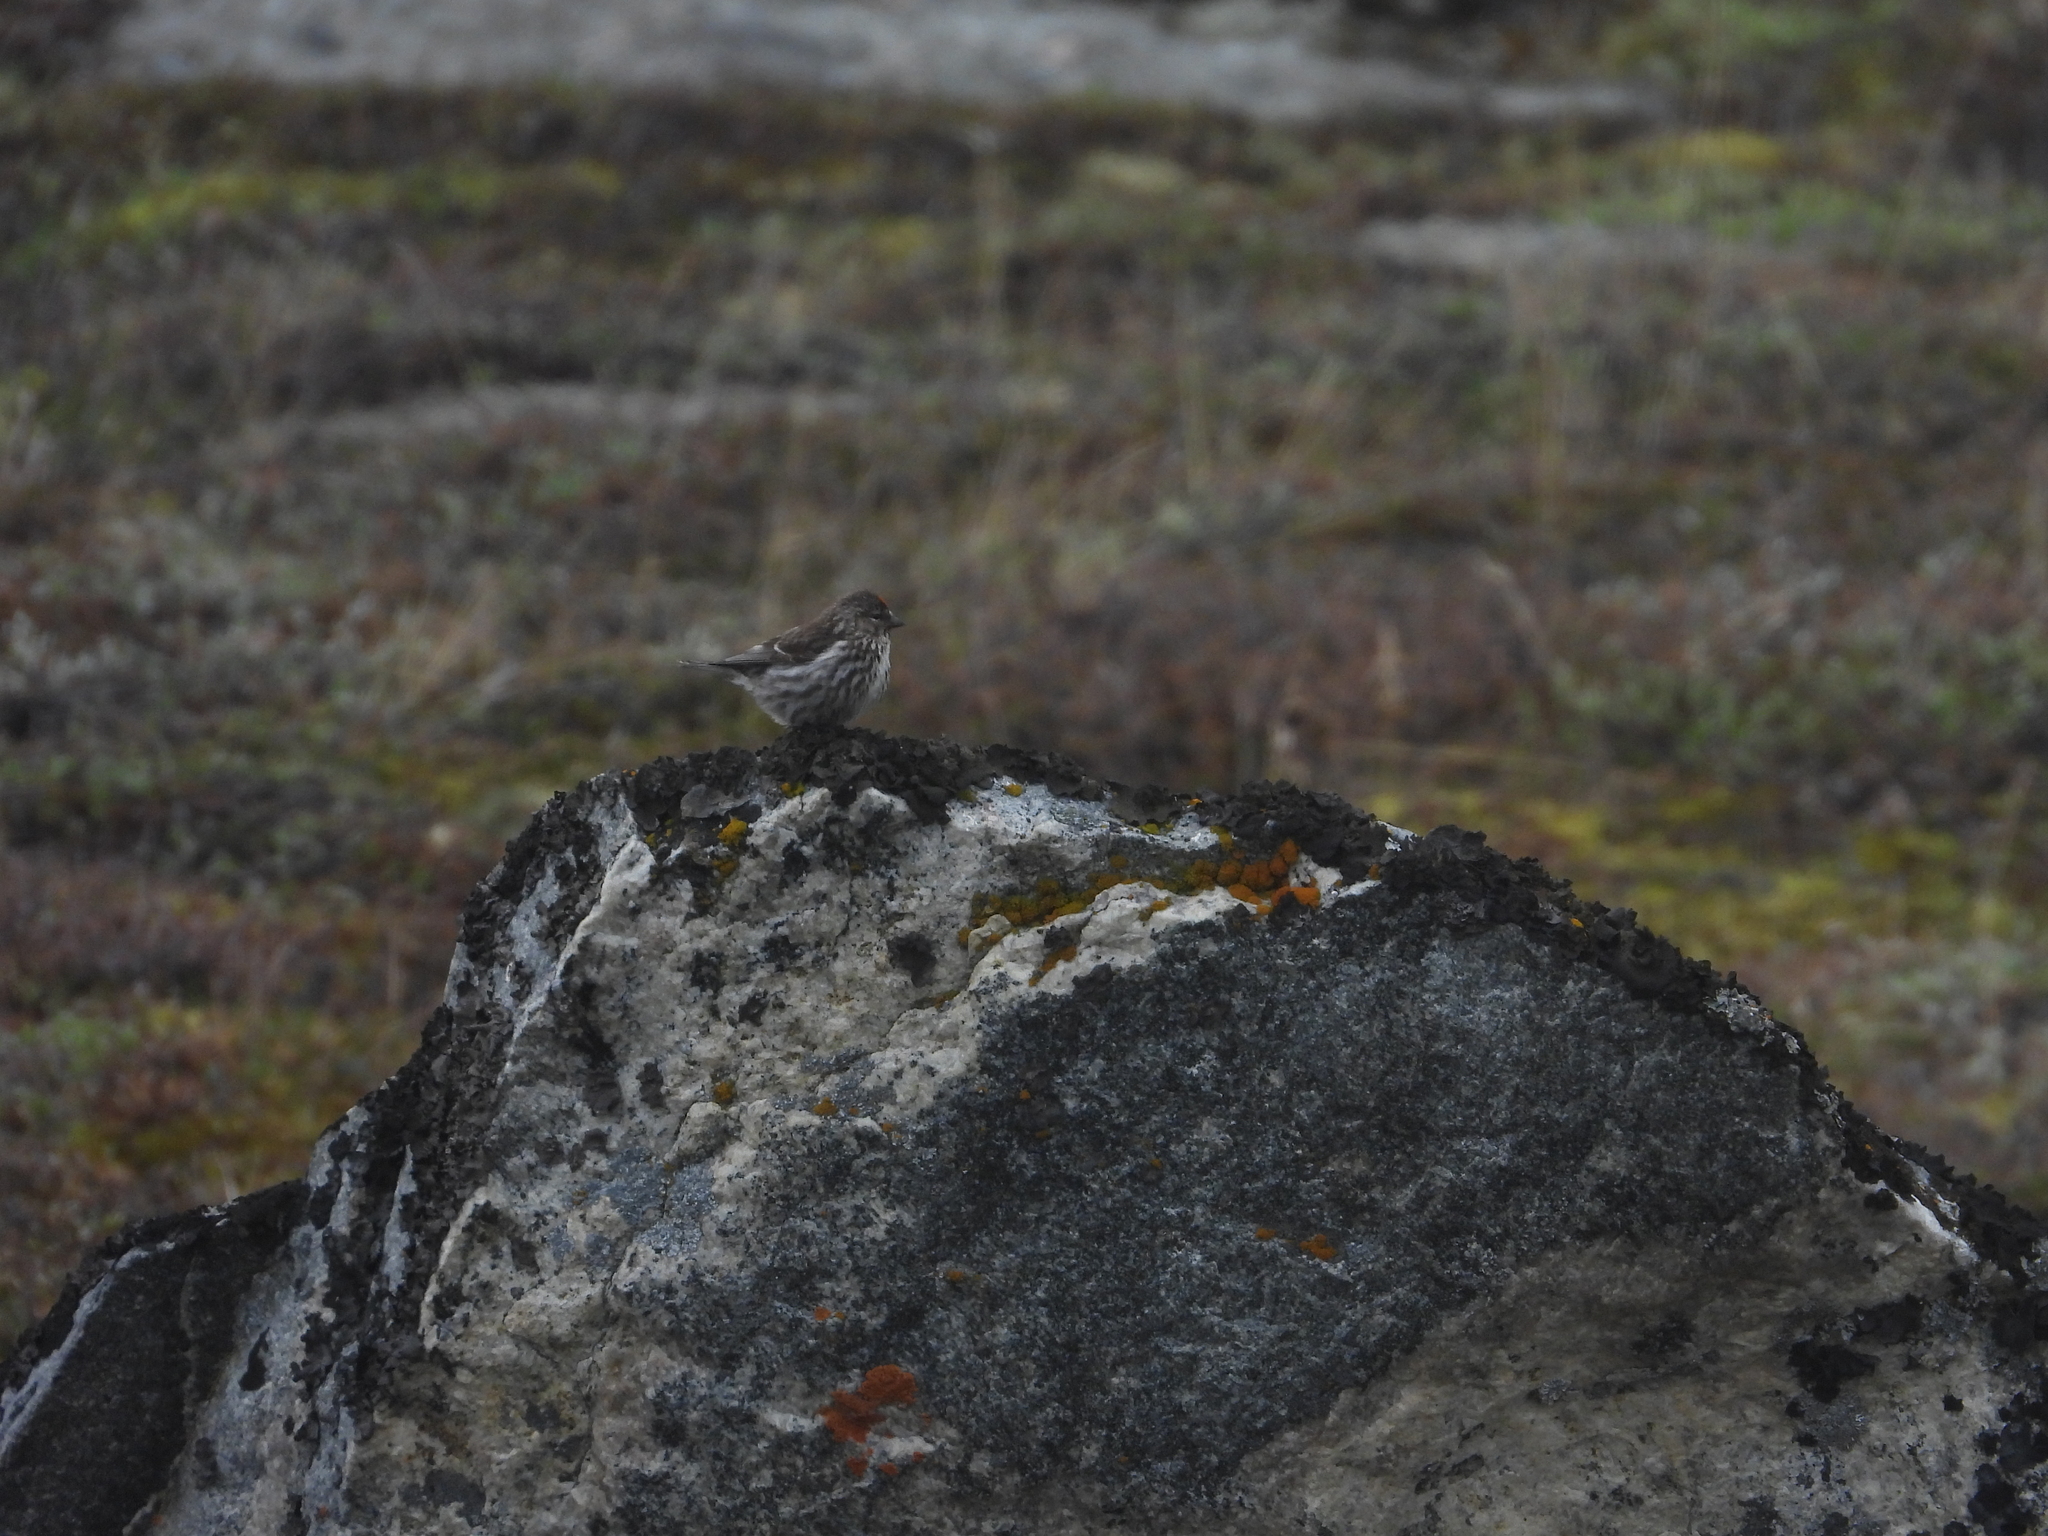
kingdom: Animalia
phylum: Chordata
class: Aves
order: Passeriformes
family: Fringillidae
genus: Acanthis
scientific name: Acanthis flammea
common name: Common redpoll
